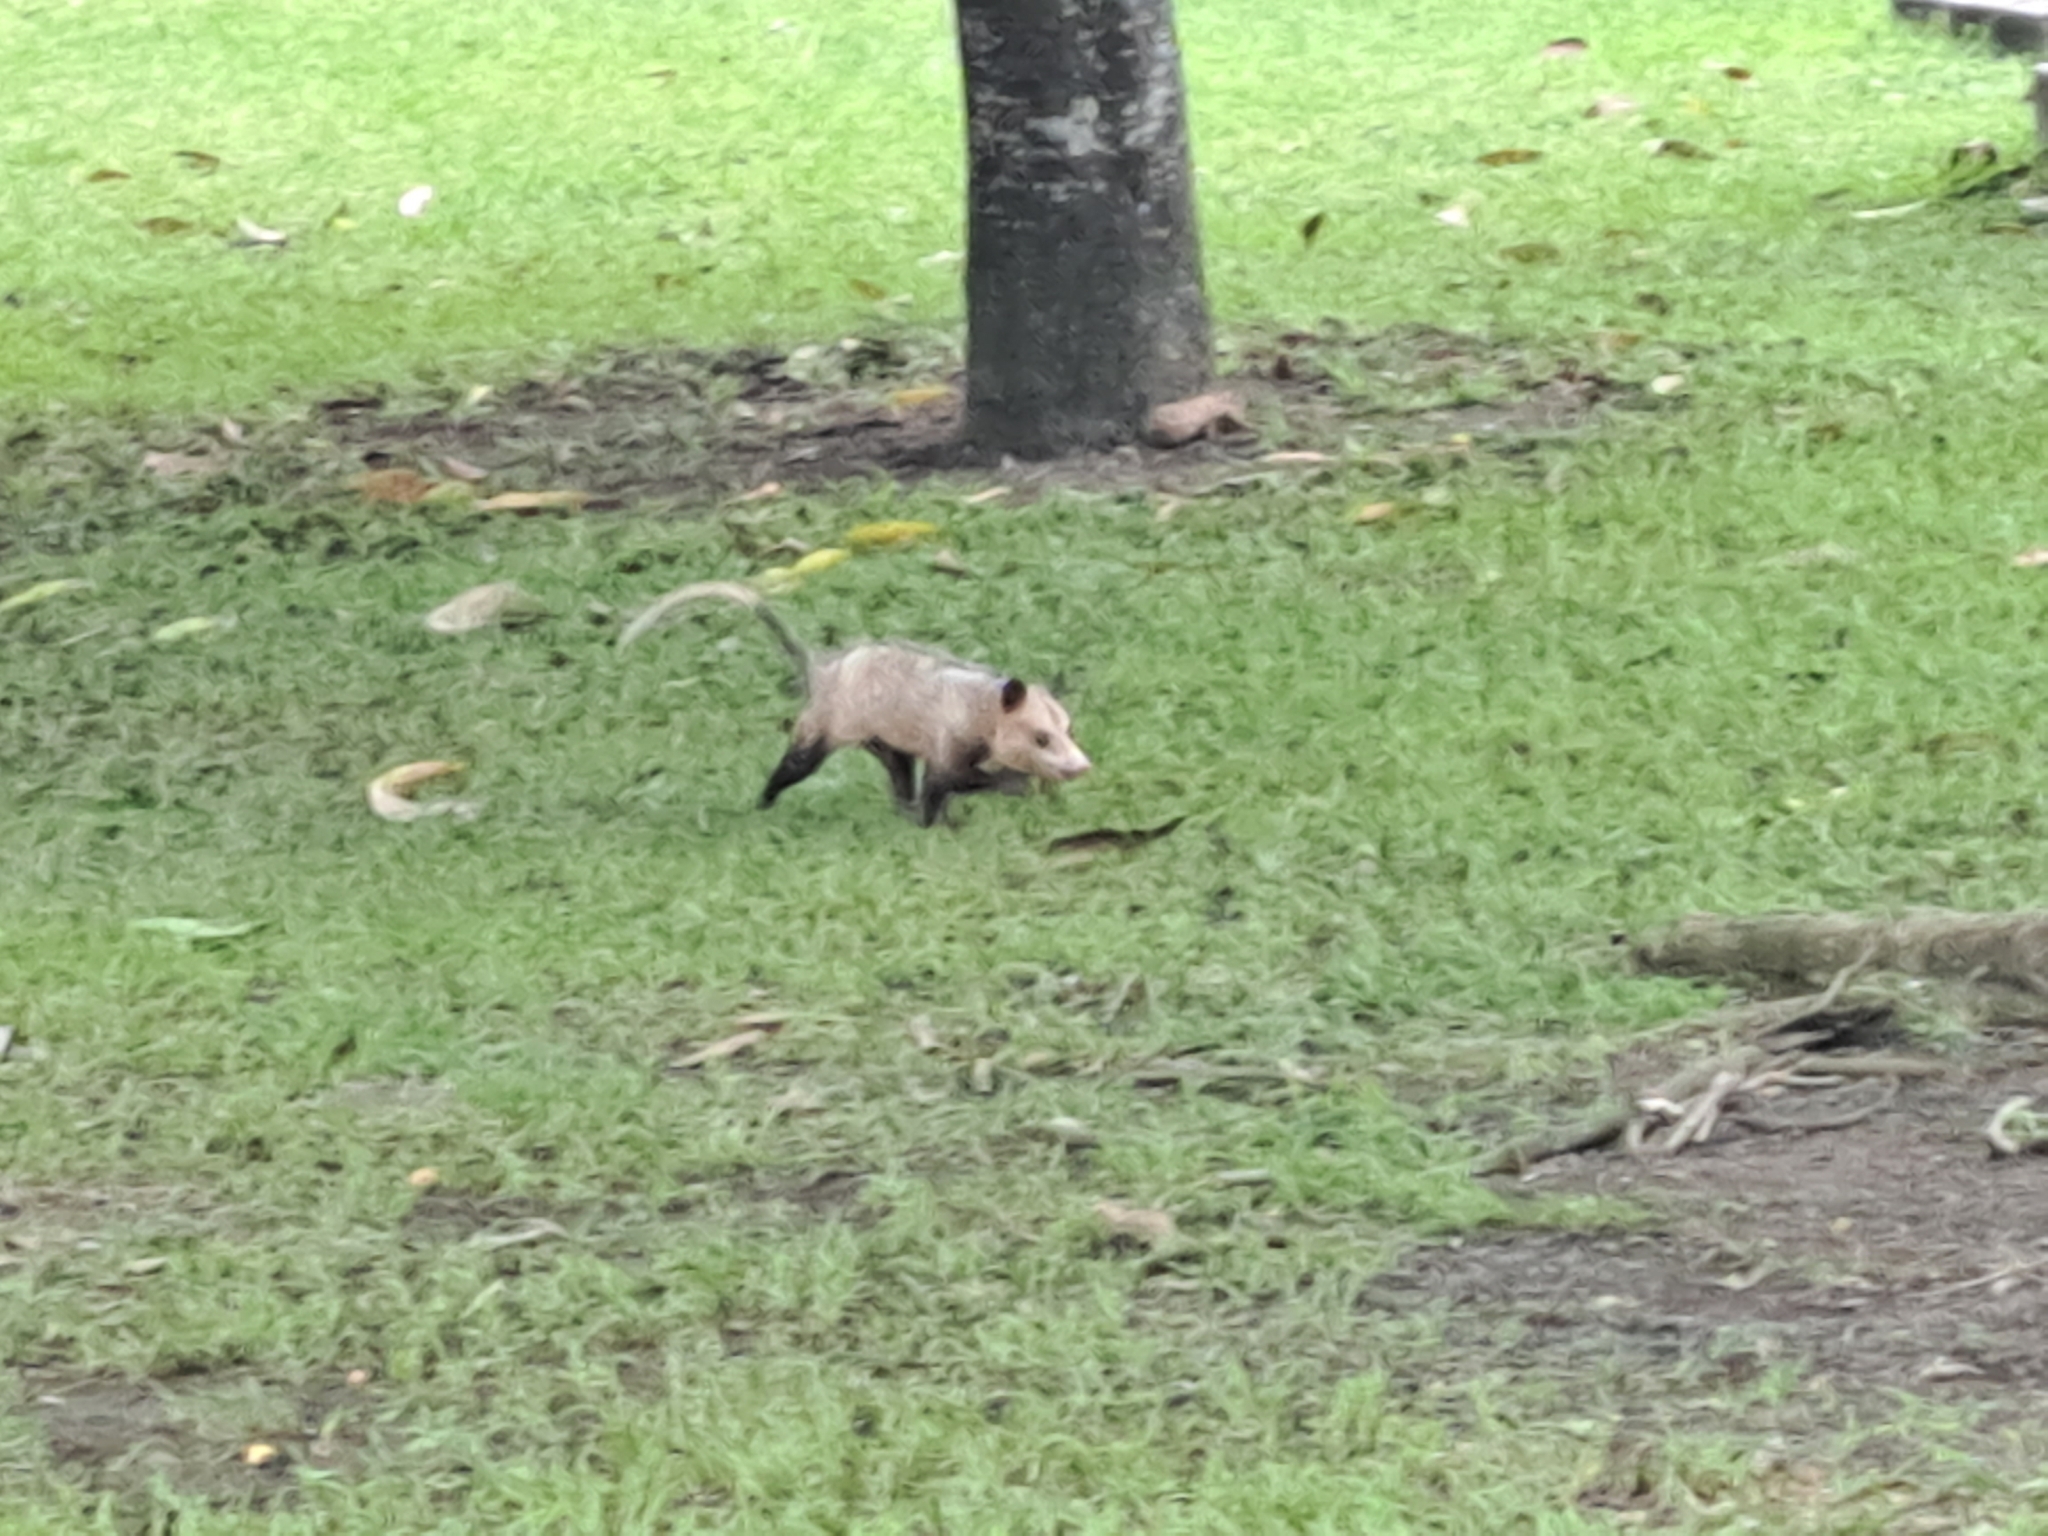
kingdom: Animalia
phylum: Chordata
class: Mammalia
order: Didelphimorphia
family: Didelphidae
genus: Didelphis
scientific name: Didelphis marsupialis
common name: Common opossum
